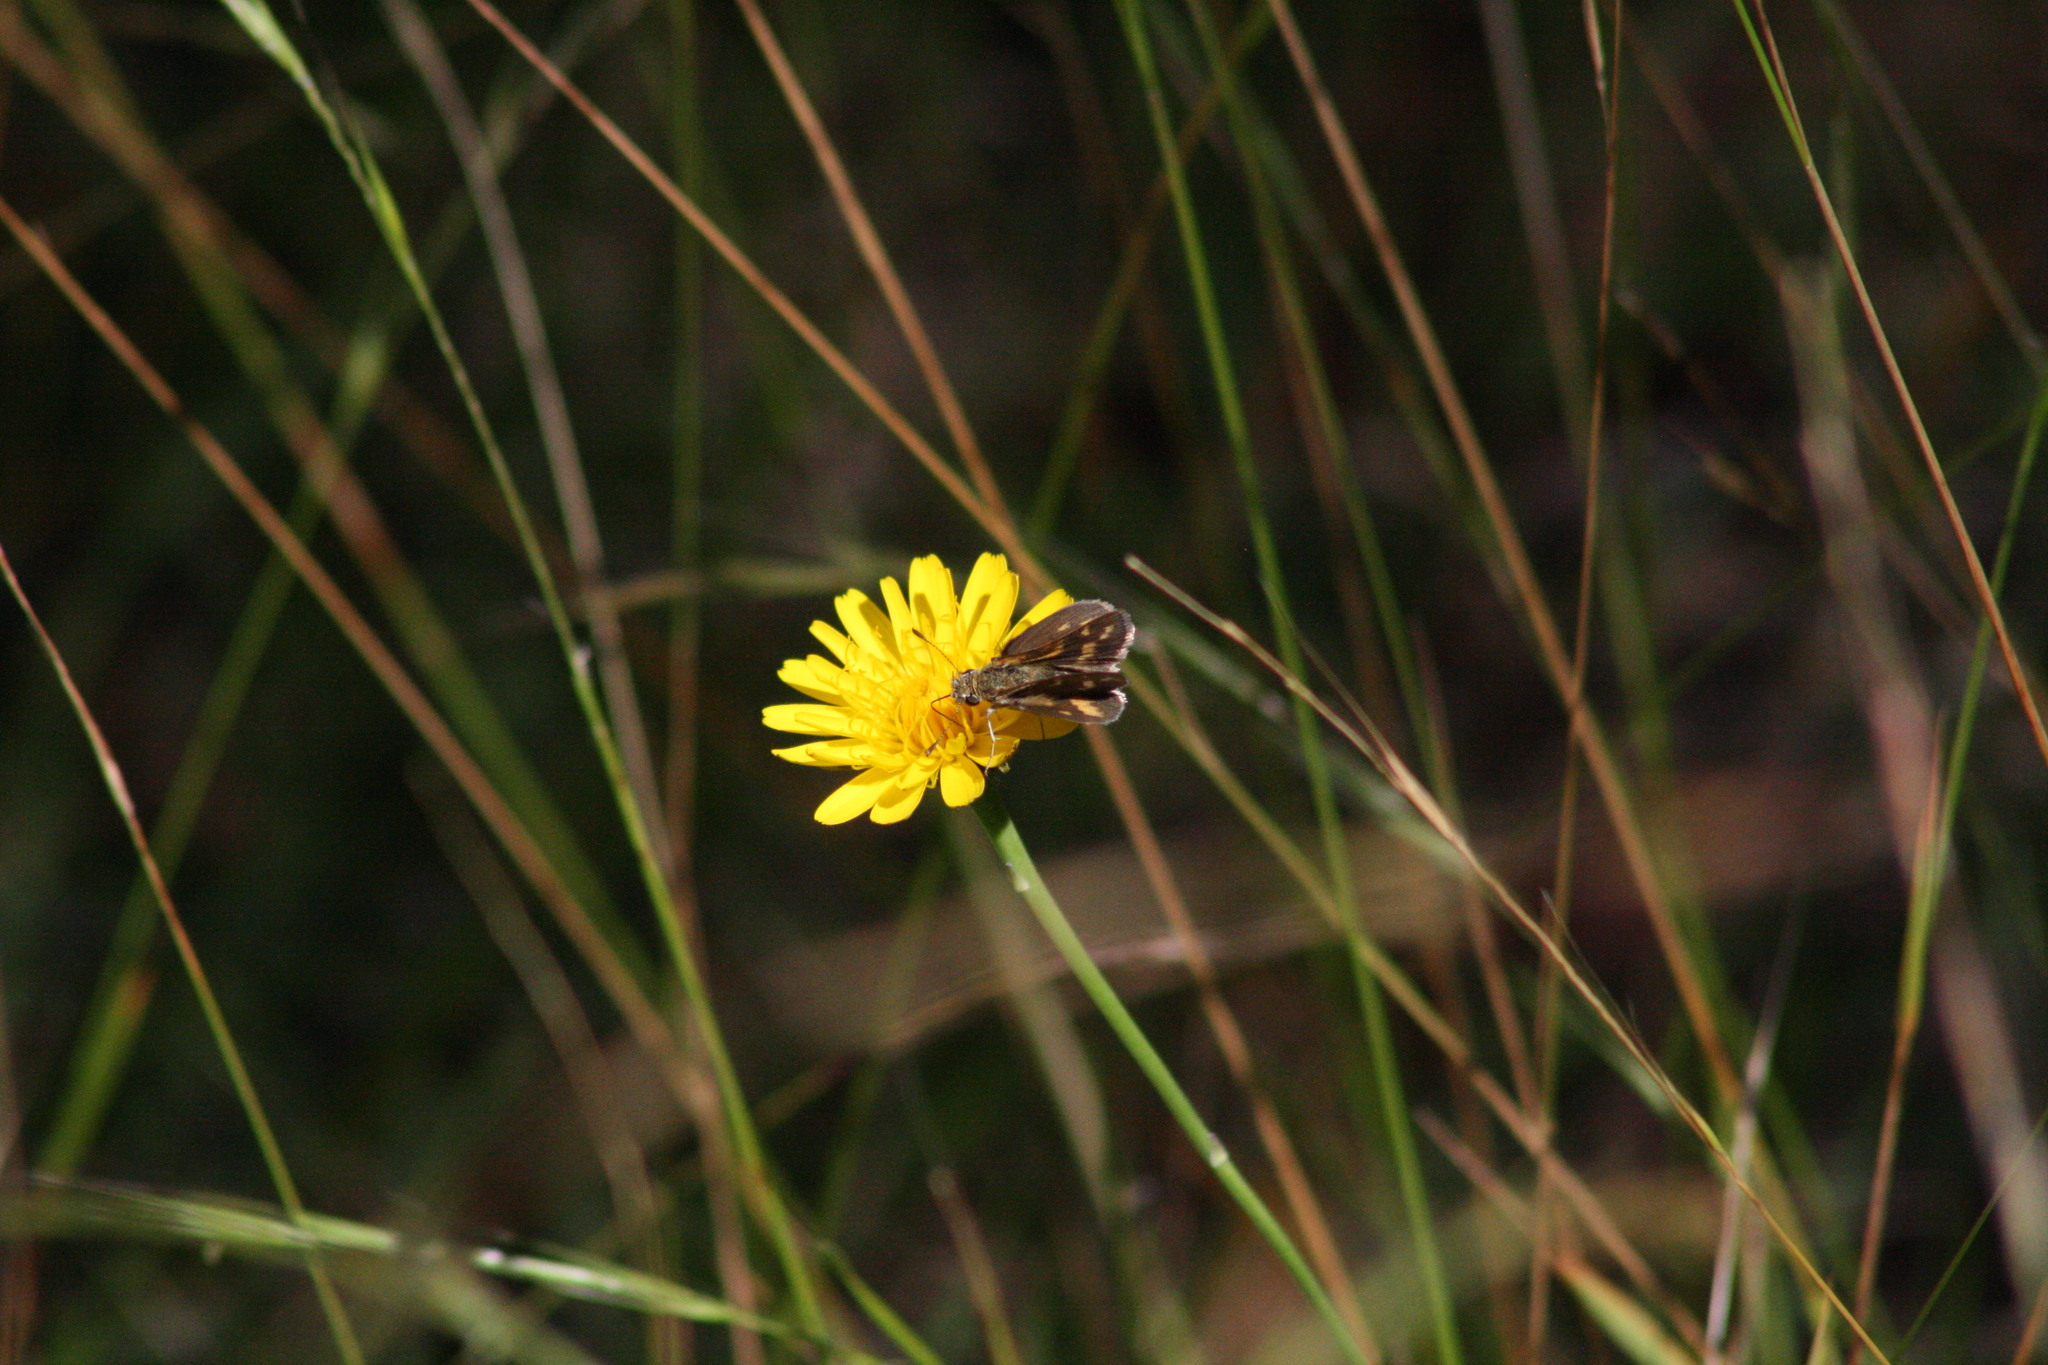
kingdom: Animalia
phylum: Arthropoda
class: Insecta
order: Lepidoptera
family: Hesperiidae
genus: Taractrocera
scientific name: Taractrocera papyria
